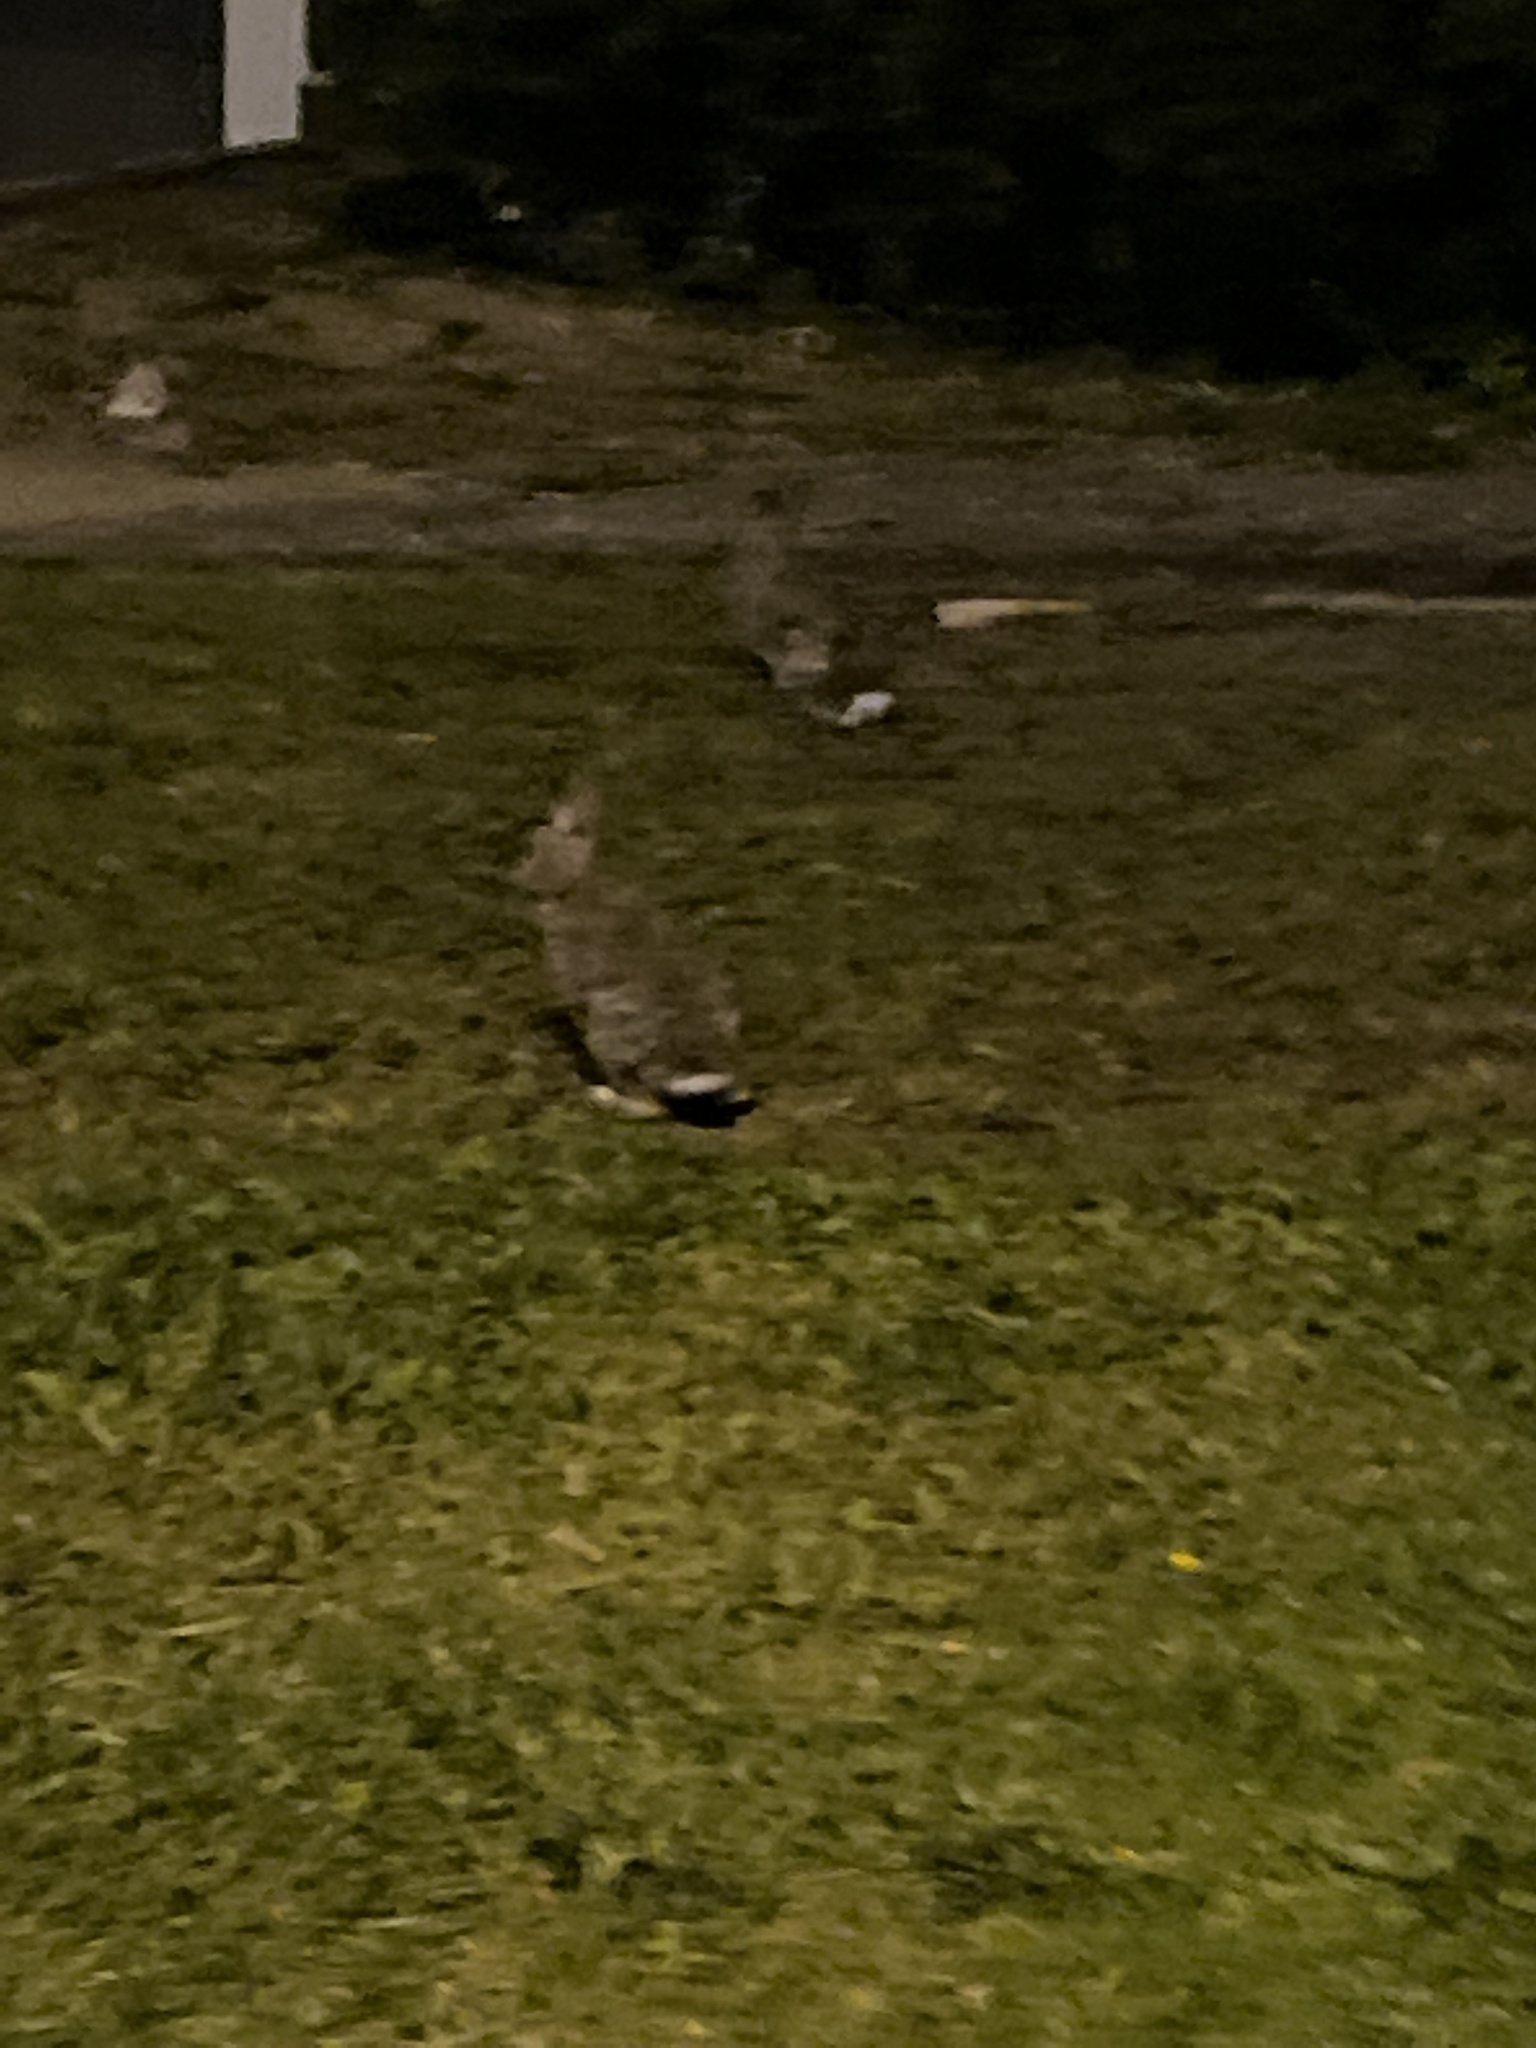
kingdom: Animalia
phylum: Chordata
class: Mammalia
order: Lagomorpha
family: Leporidae
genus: Sylvilagus
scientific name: Sylvilagus floridanus
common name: Eastern cottontail
